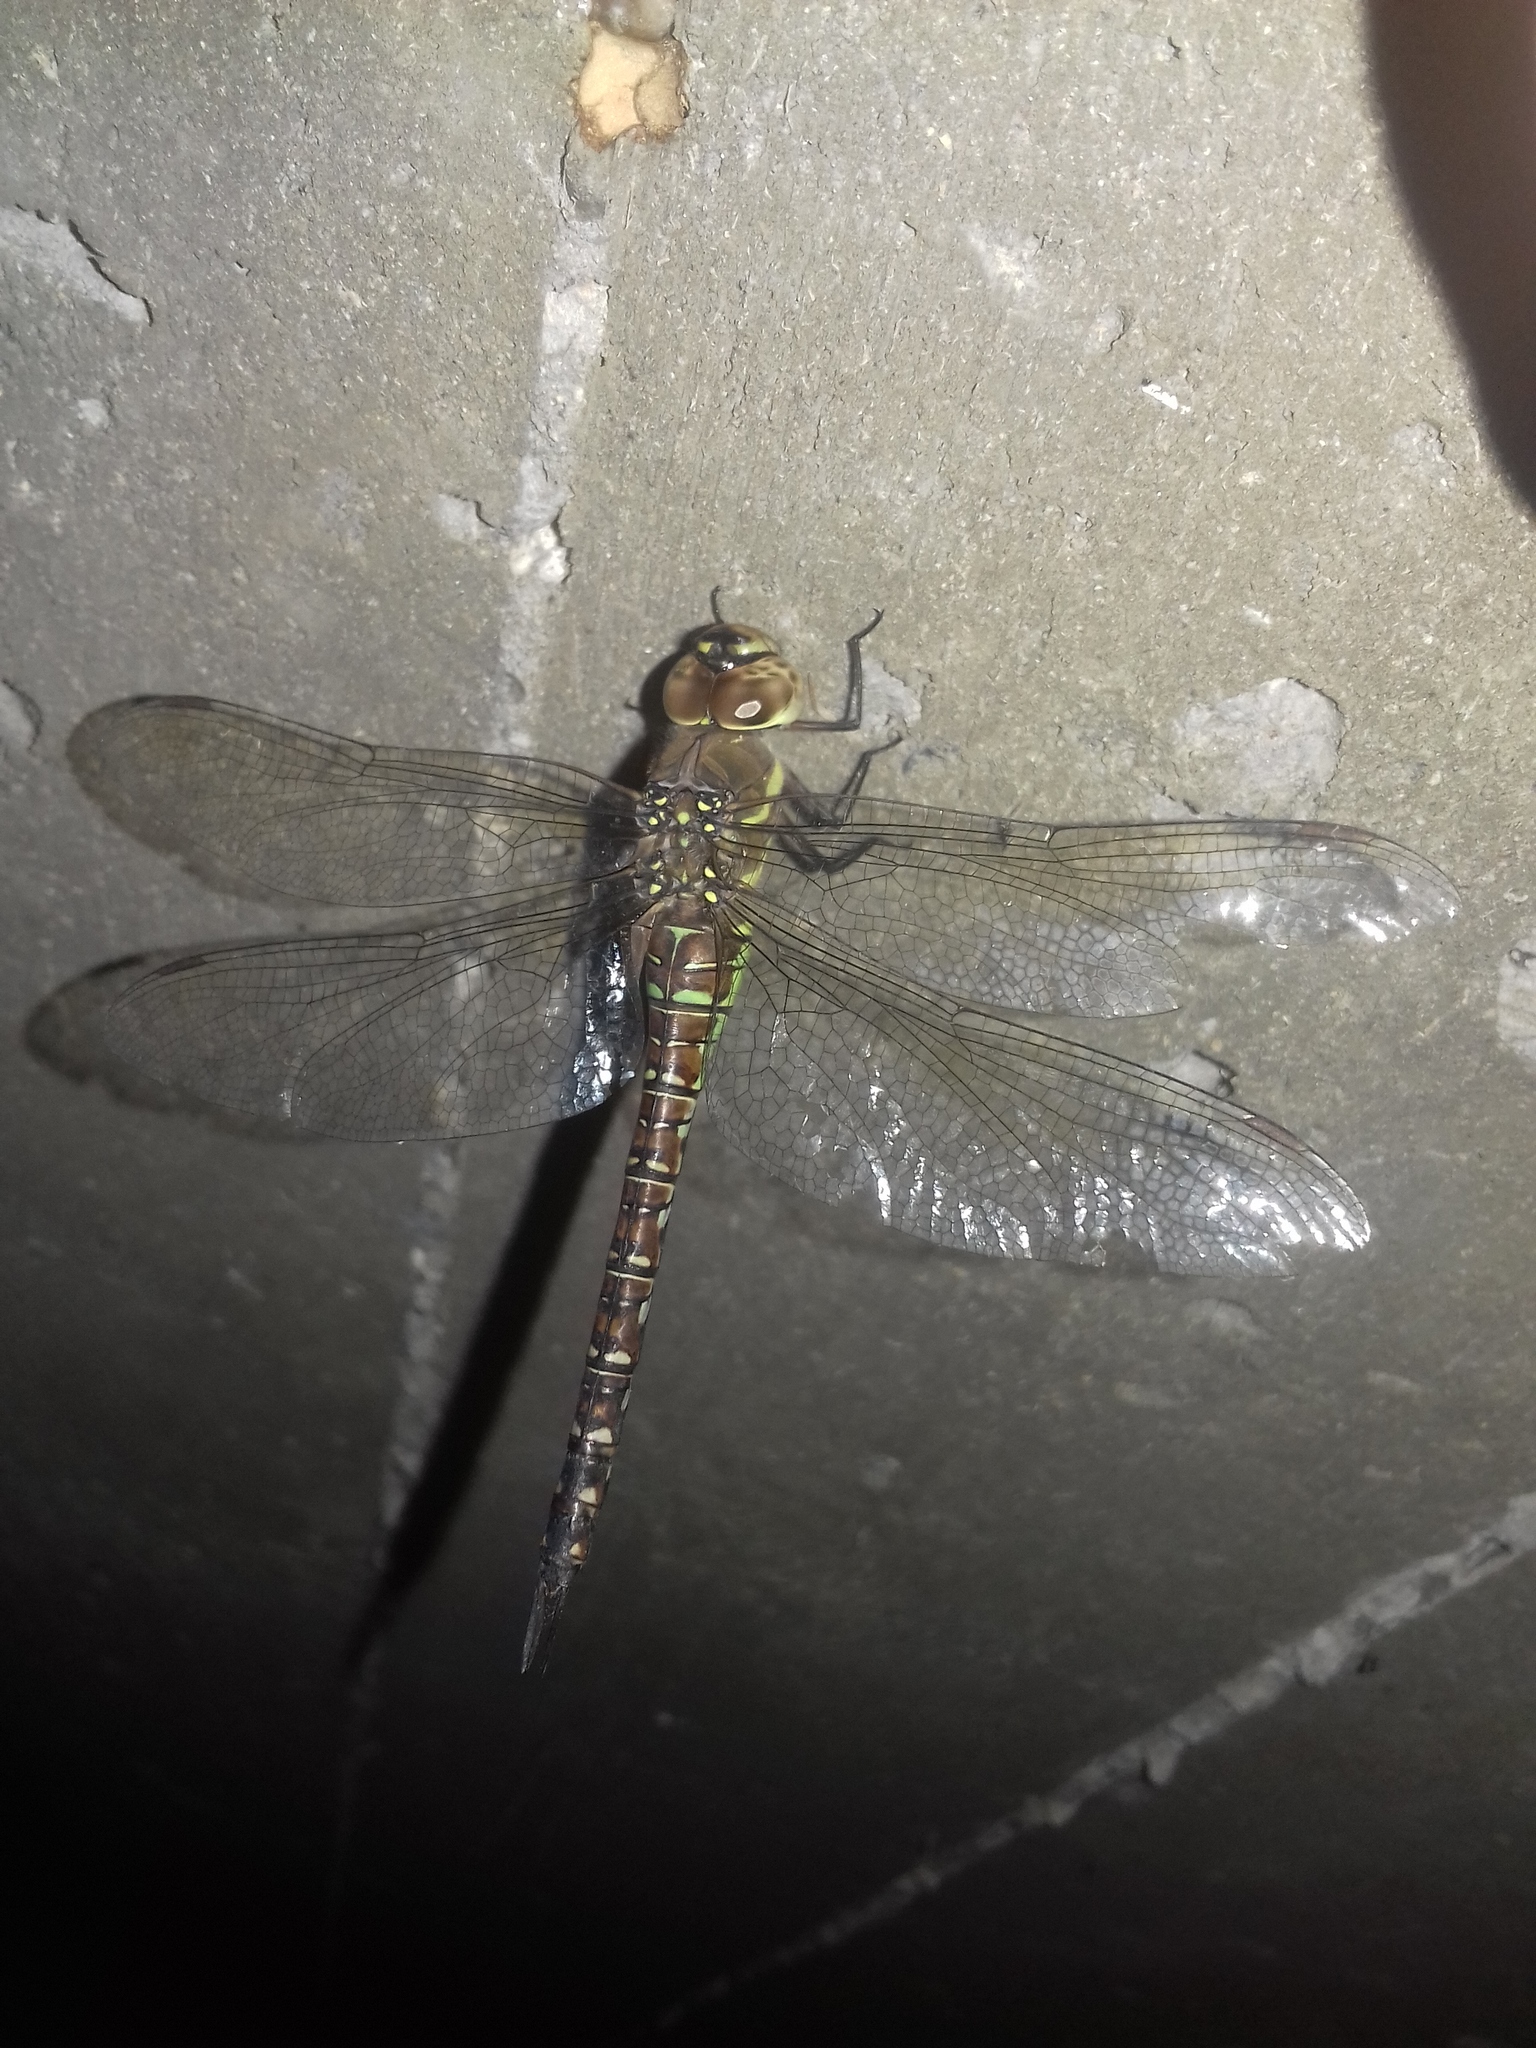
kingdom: Animalia
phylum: Arthropoda
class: Insecta
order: Odonata
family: Aeshnidae
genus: Aeshna
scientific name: Aeshna mixta
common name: Migrant hawker
